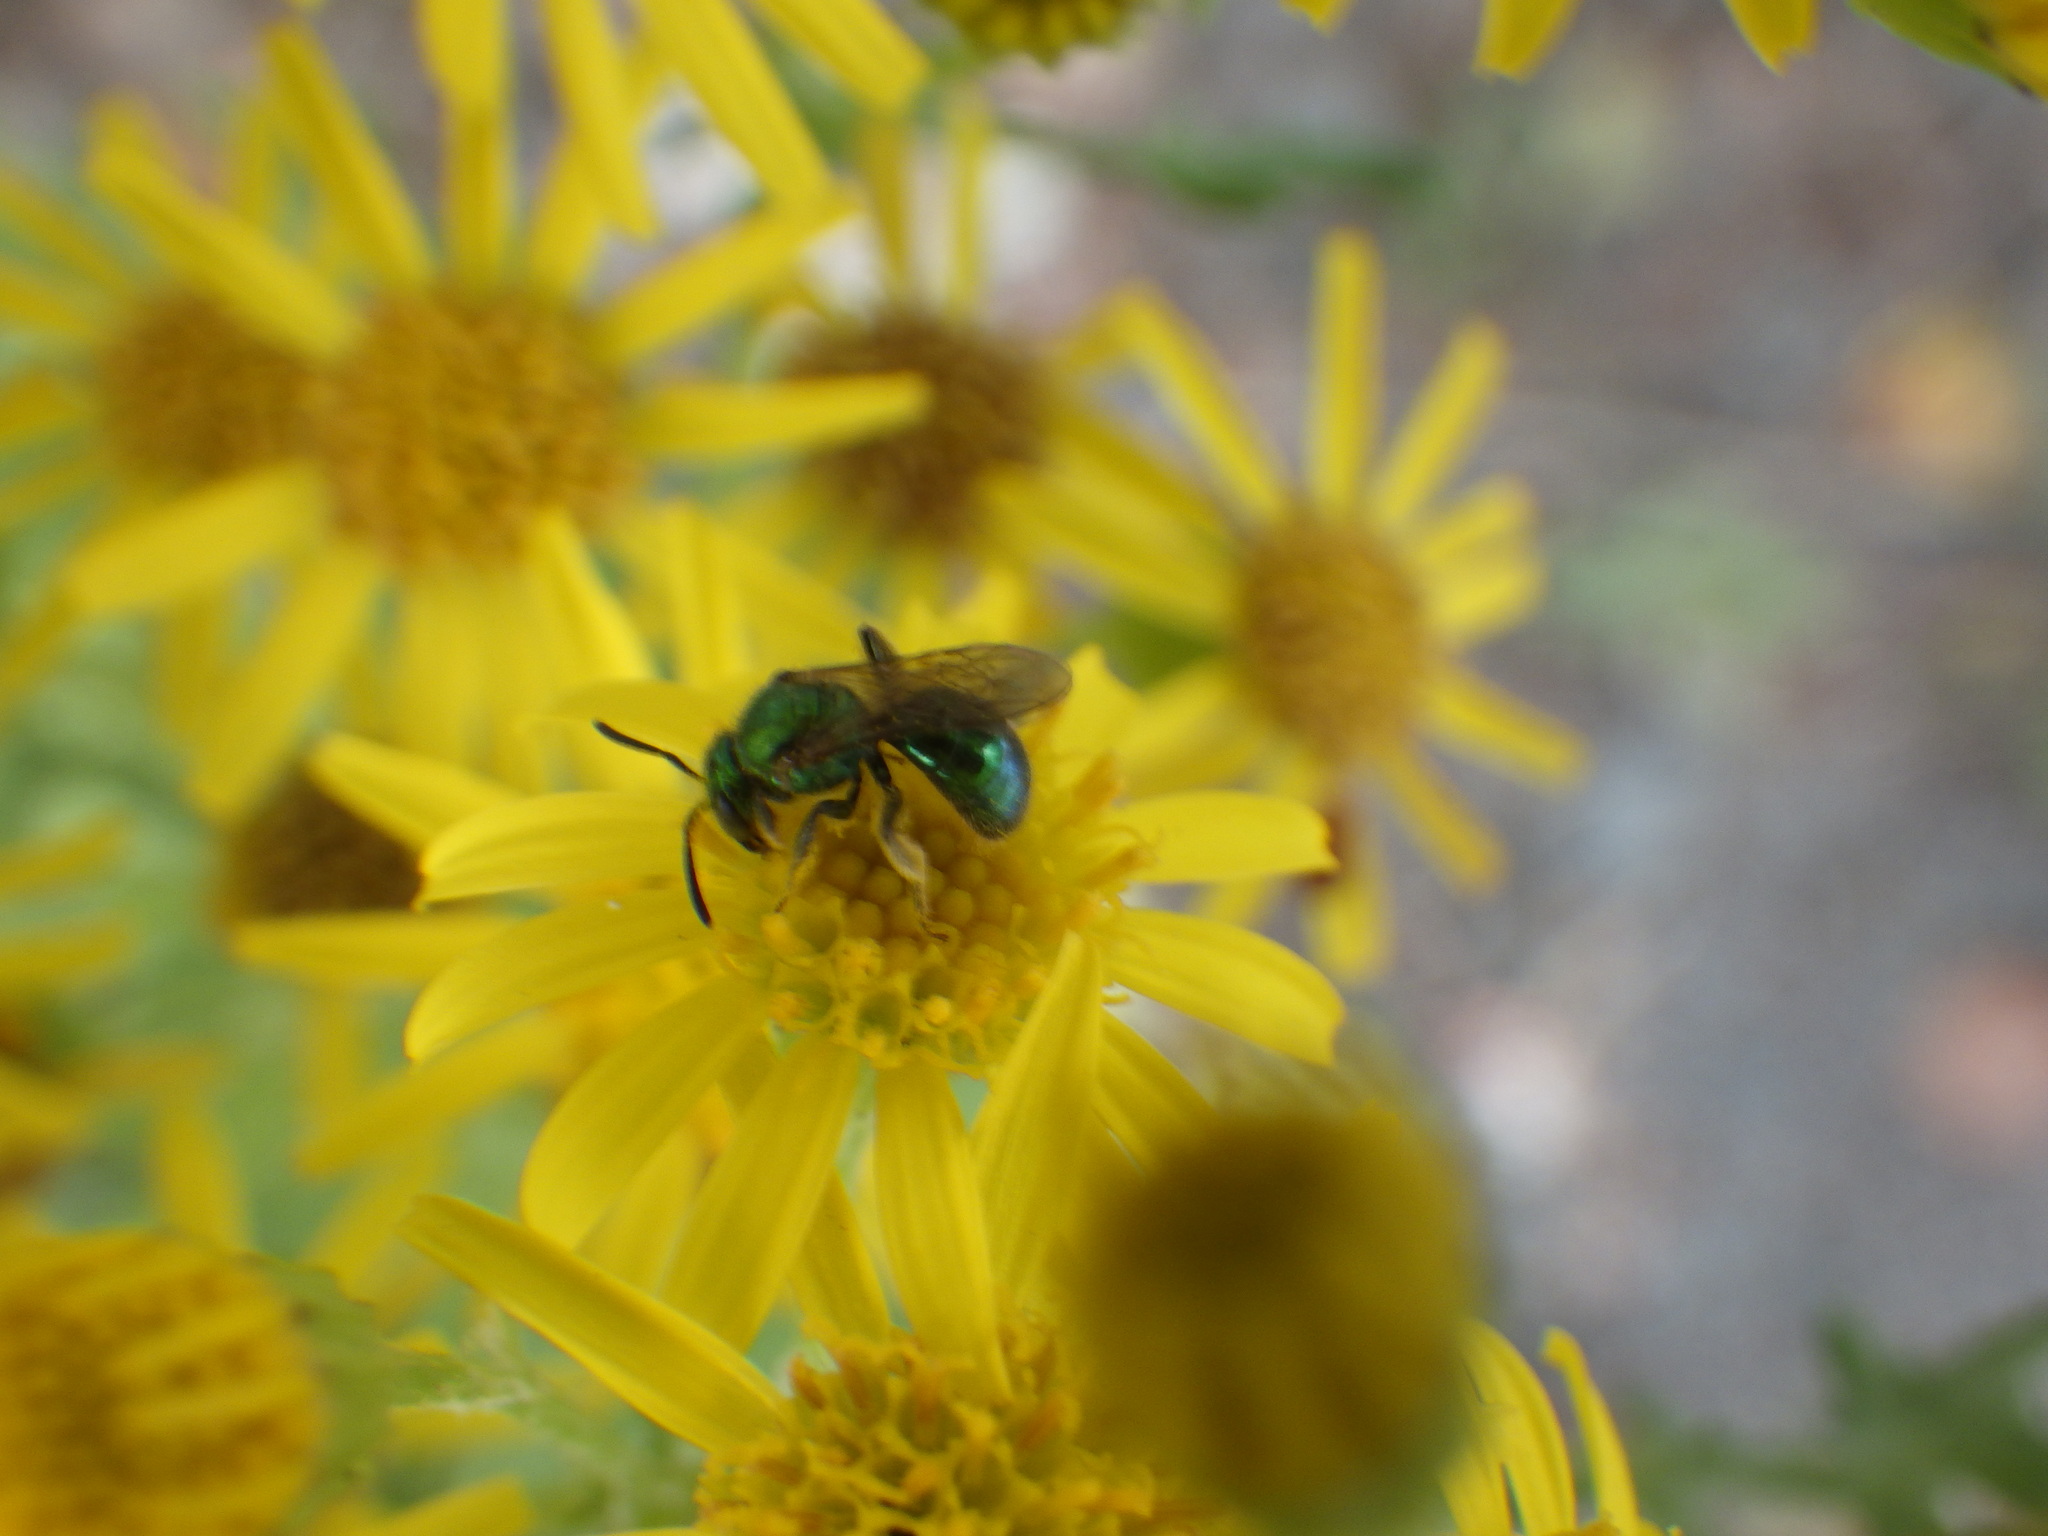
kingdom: Animalia
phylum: Arthropoda
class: Insecta
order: Hymenoptera
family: Halictidae
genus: Augochlorella
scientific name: Augochlorella aurata
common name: Golden sweat bee
